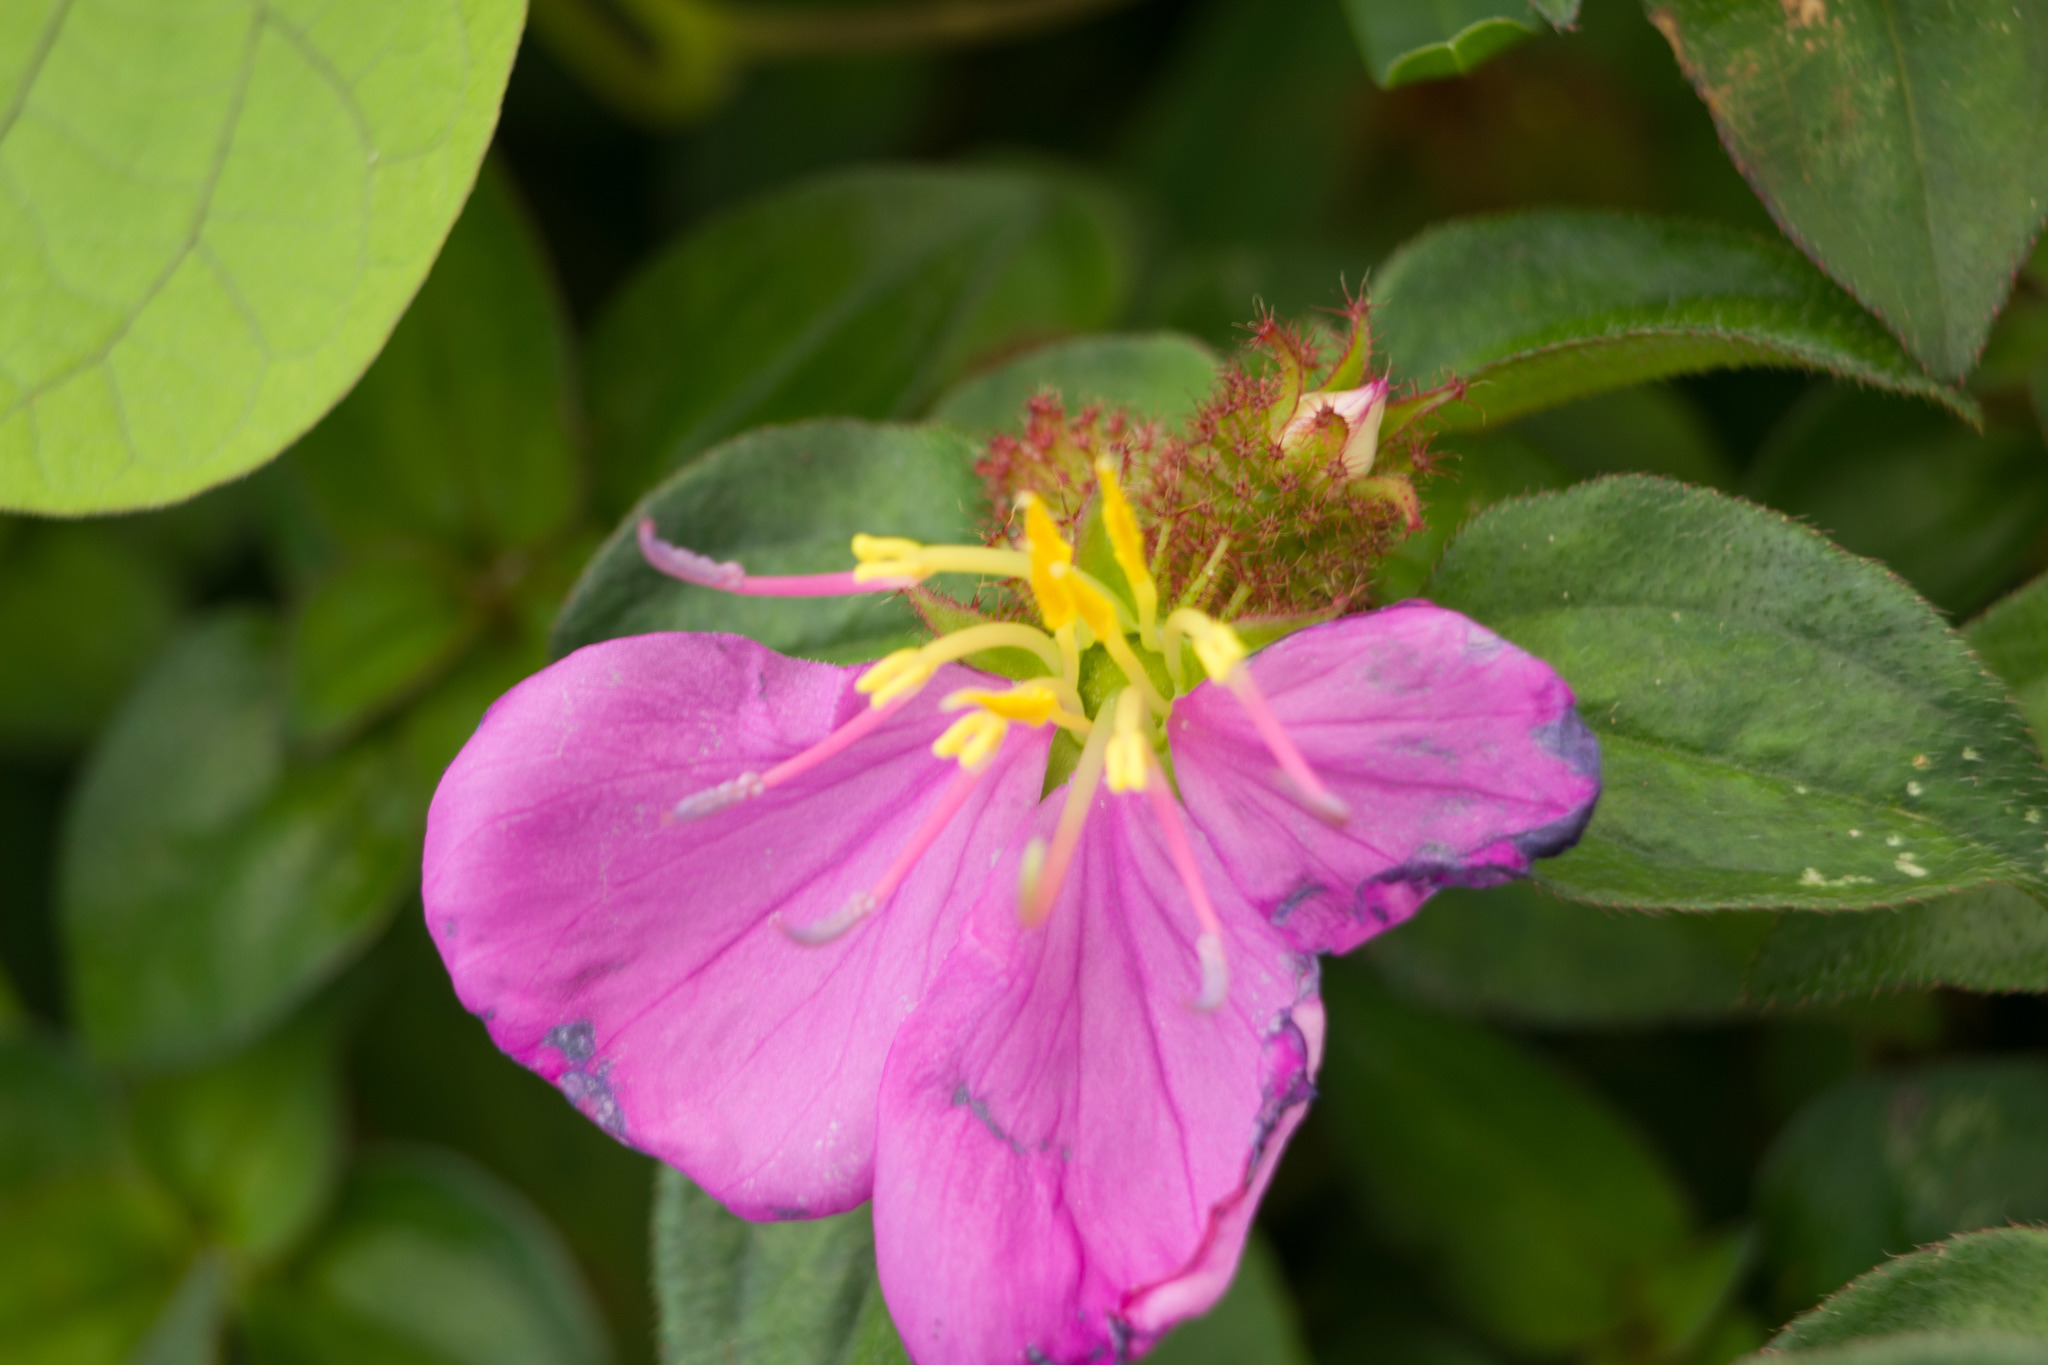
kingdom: Plantae
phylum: Tracheophyta
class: Magnoliopsida
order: Myrtales
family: Melastomataceae
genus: Heterotis
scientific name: Heterotis rotundifolia
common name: Pinklady
